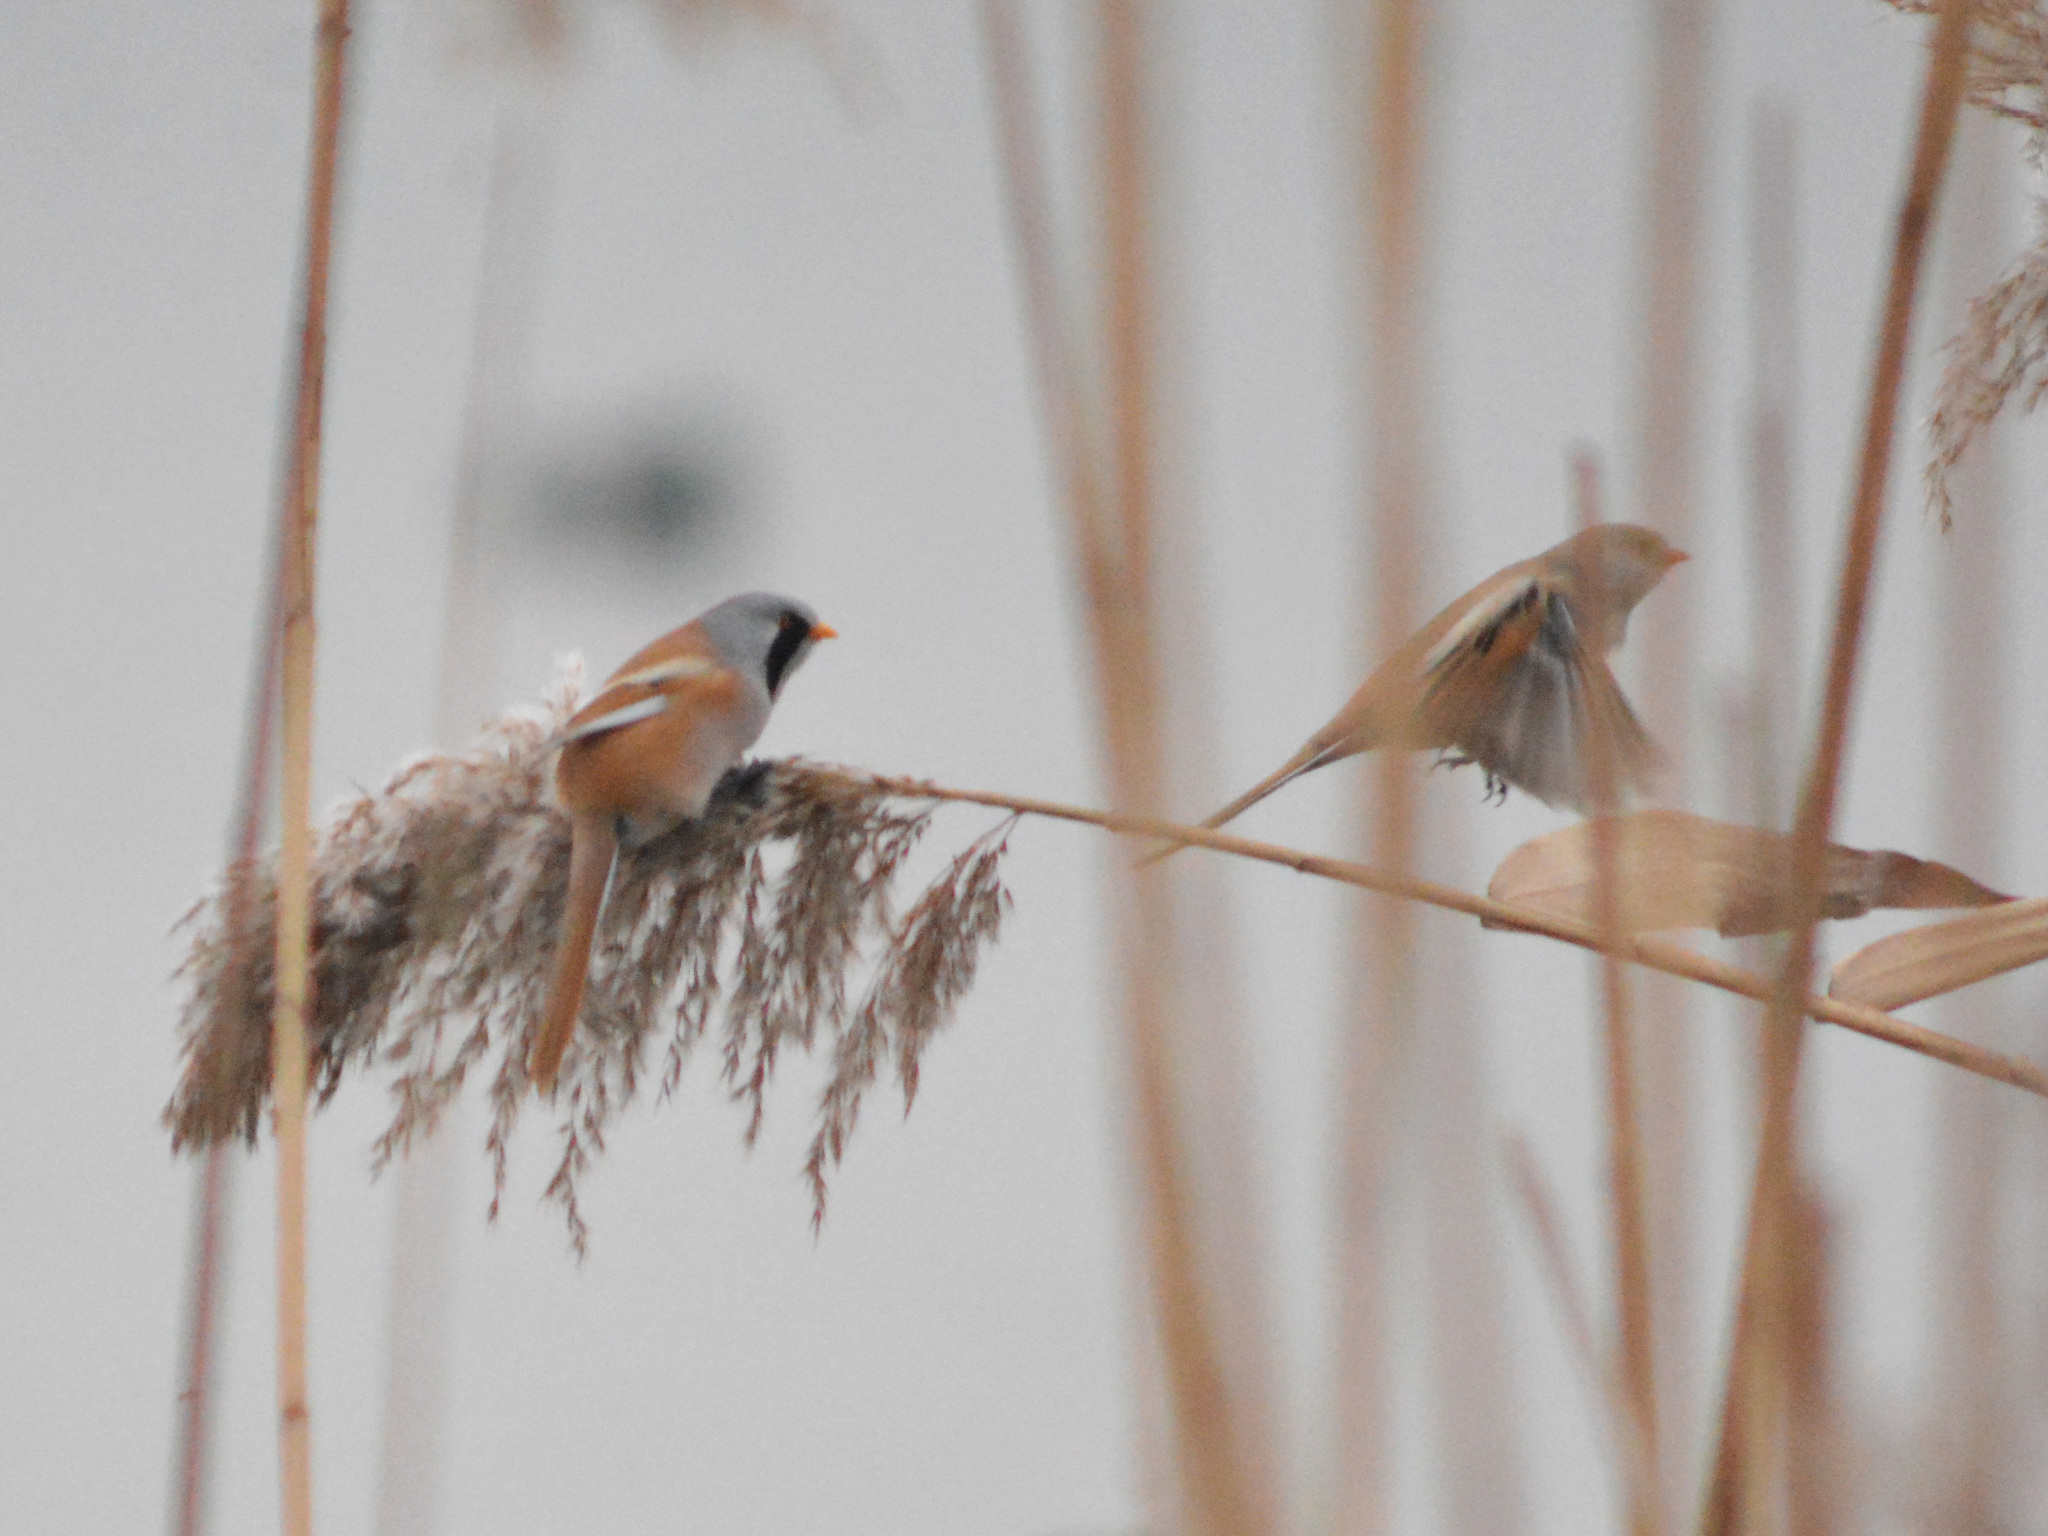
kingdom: Animalia
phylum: Chordata
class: Aves
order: Passeriformes
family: Panuridae
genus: Panurus
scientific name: Panurus biarmicus
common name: Bearded reedling
